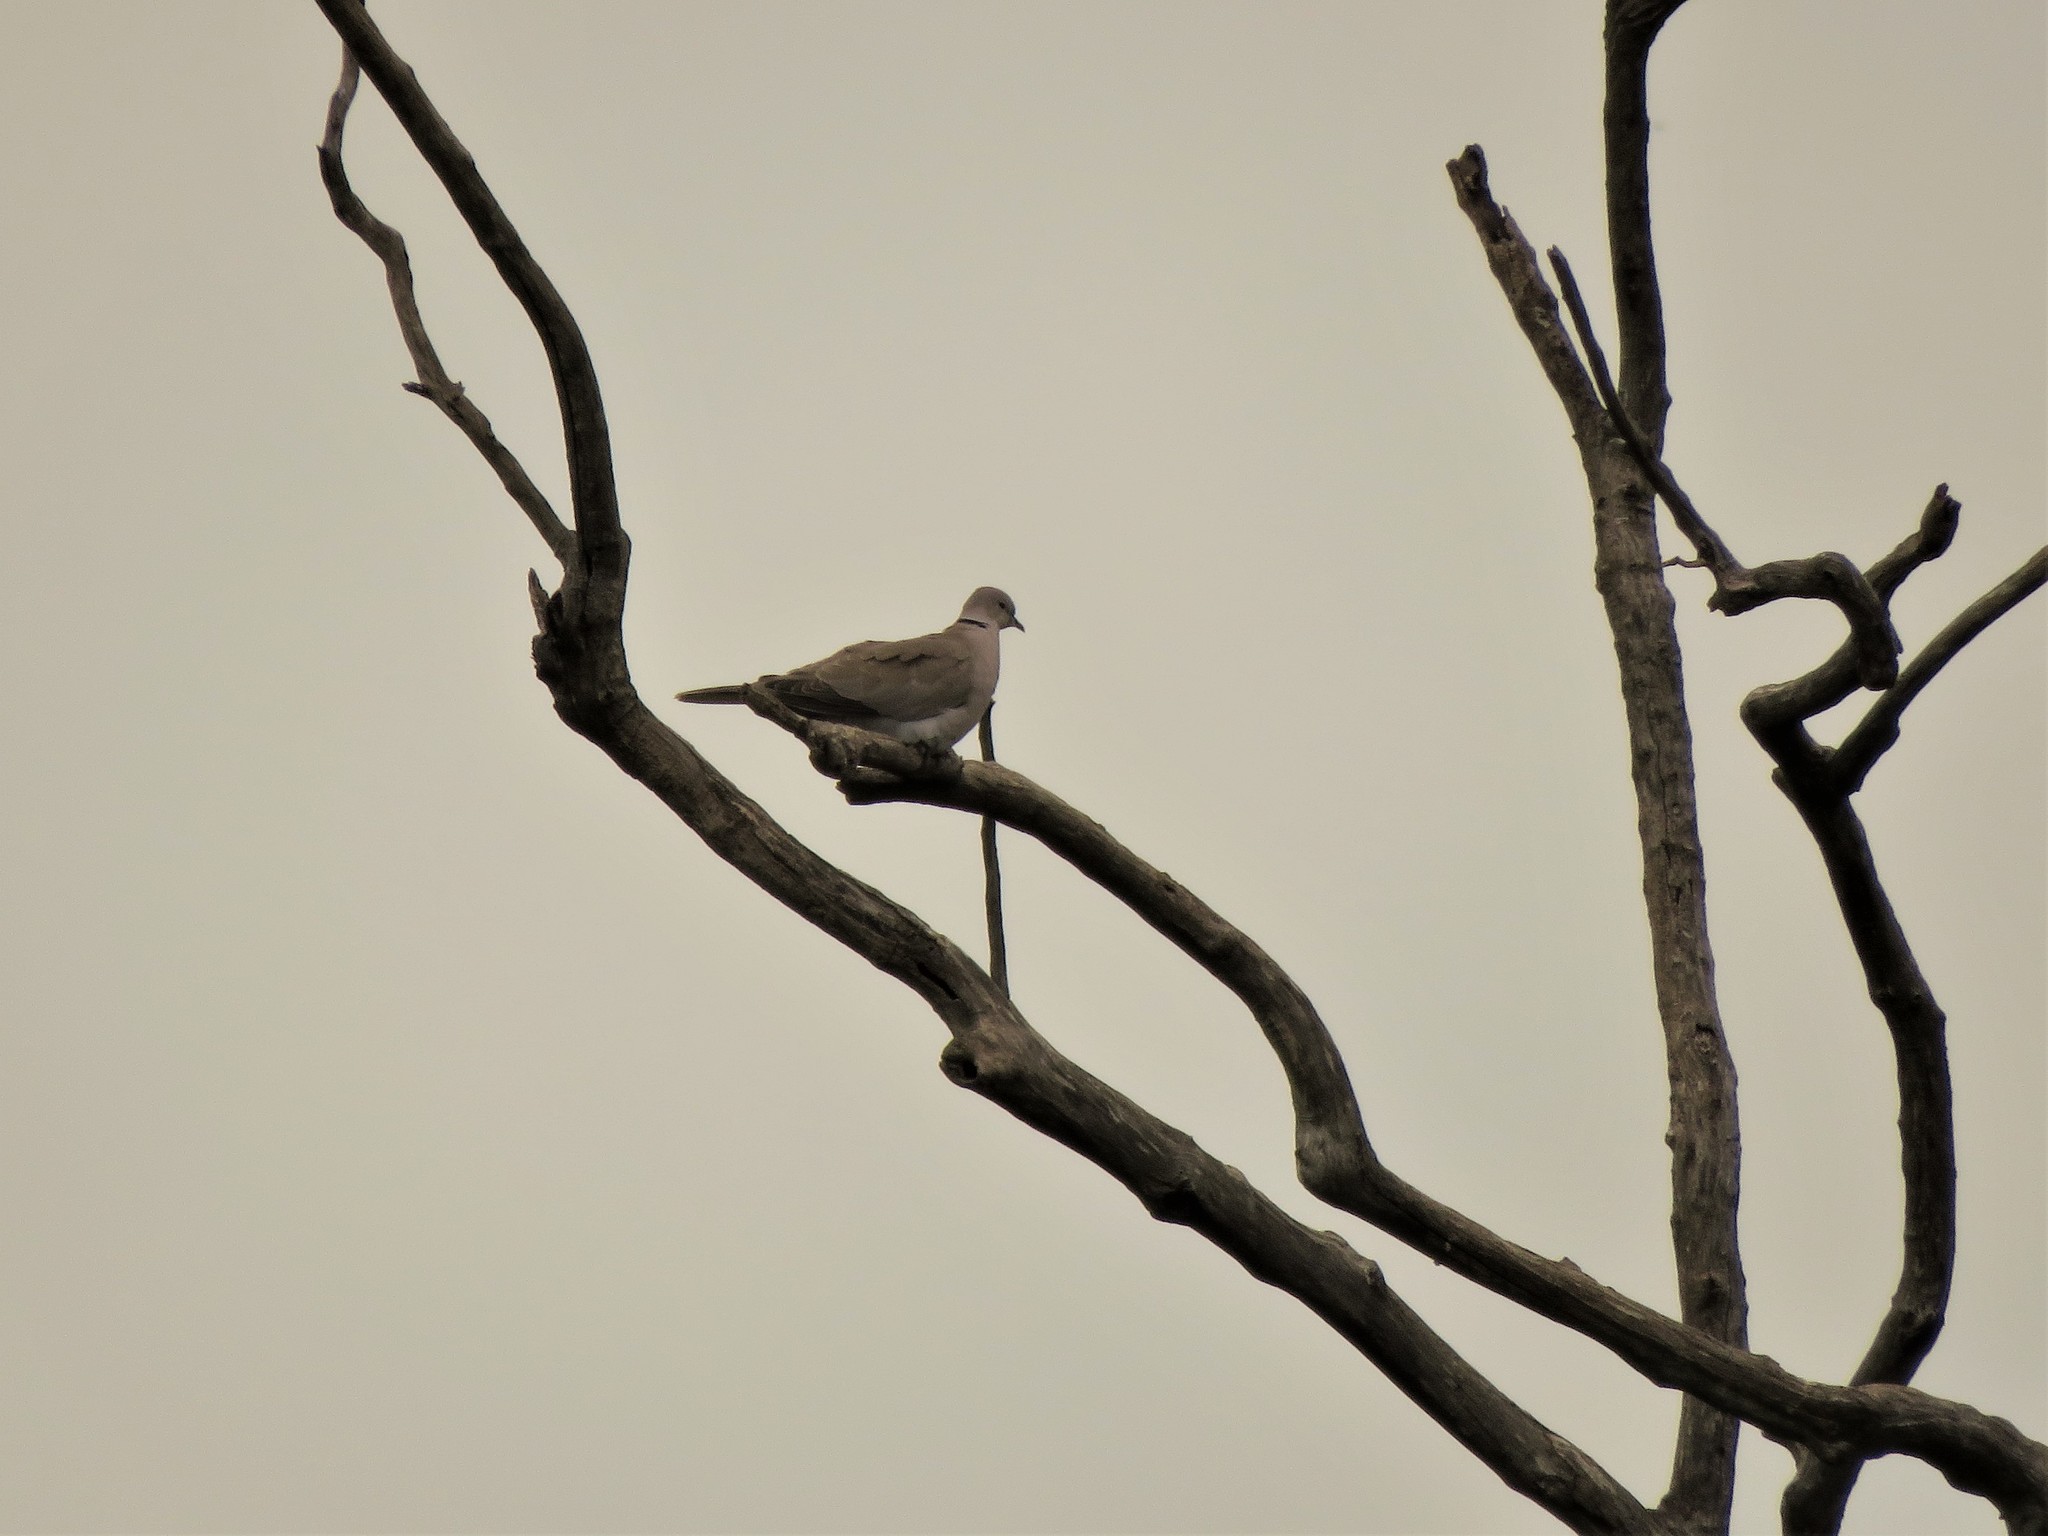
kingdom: Animalia
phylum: Chordata
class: Aves
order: Columbiformes
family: Columbidae
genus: Streptopelia
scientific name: Streptopelia decaocto
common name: Eurasian collared dove
